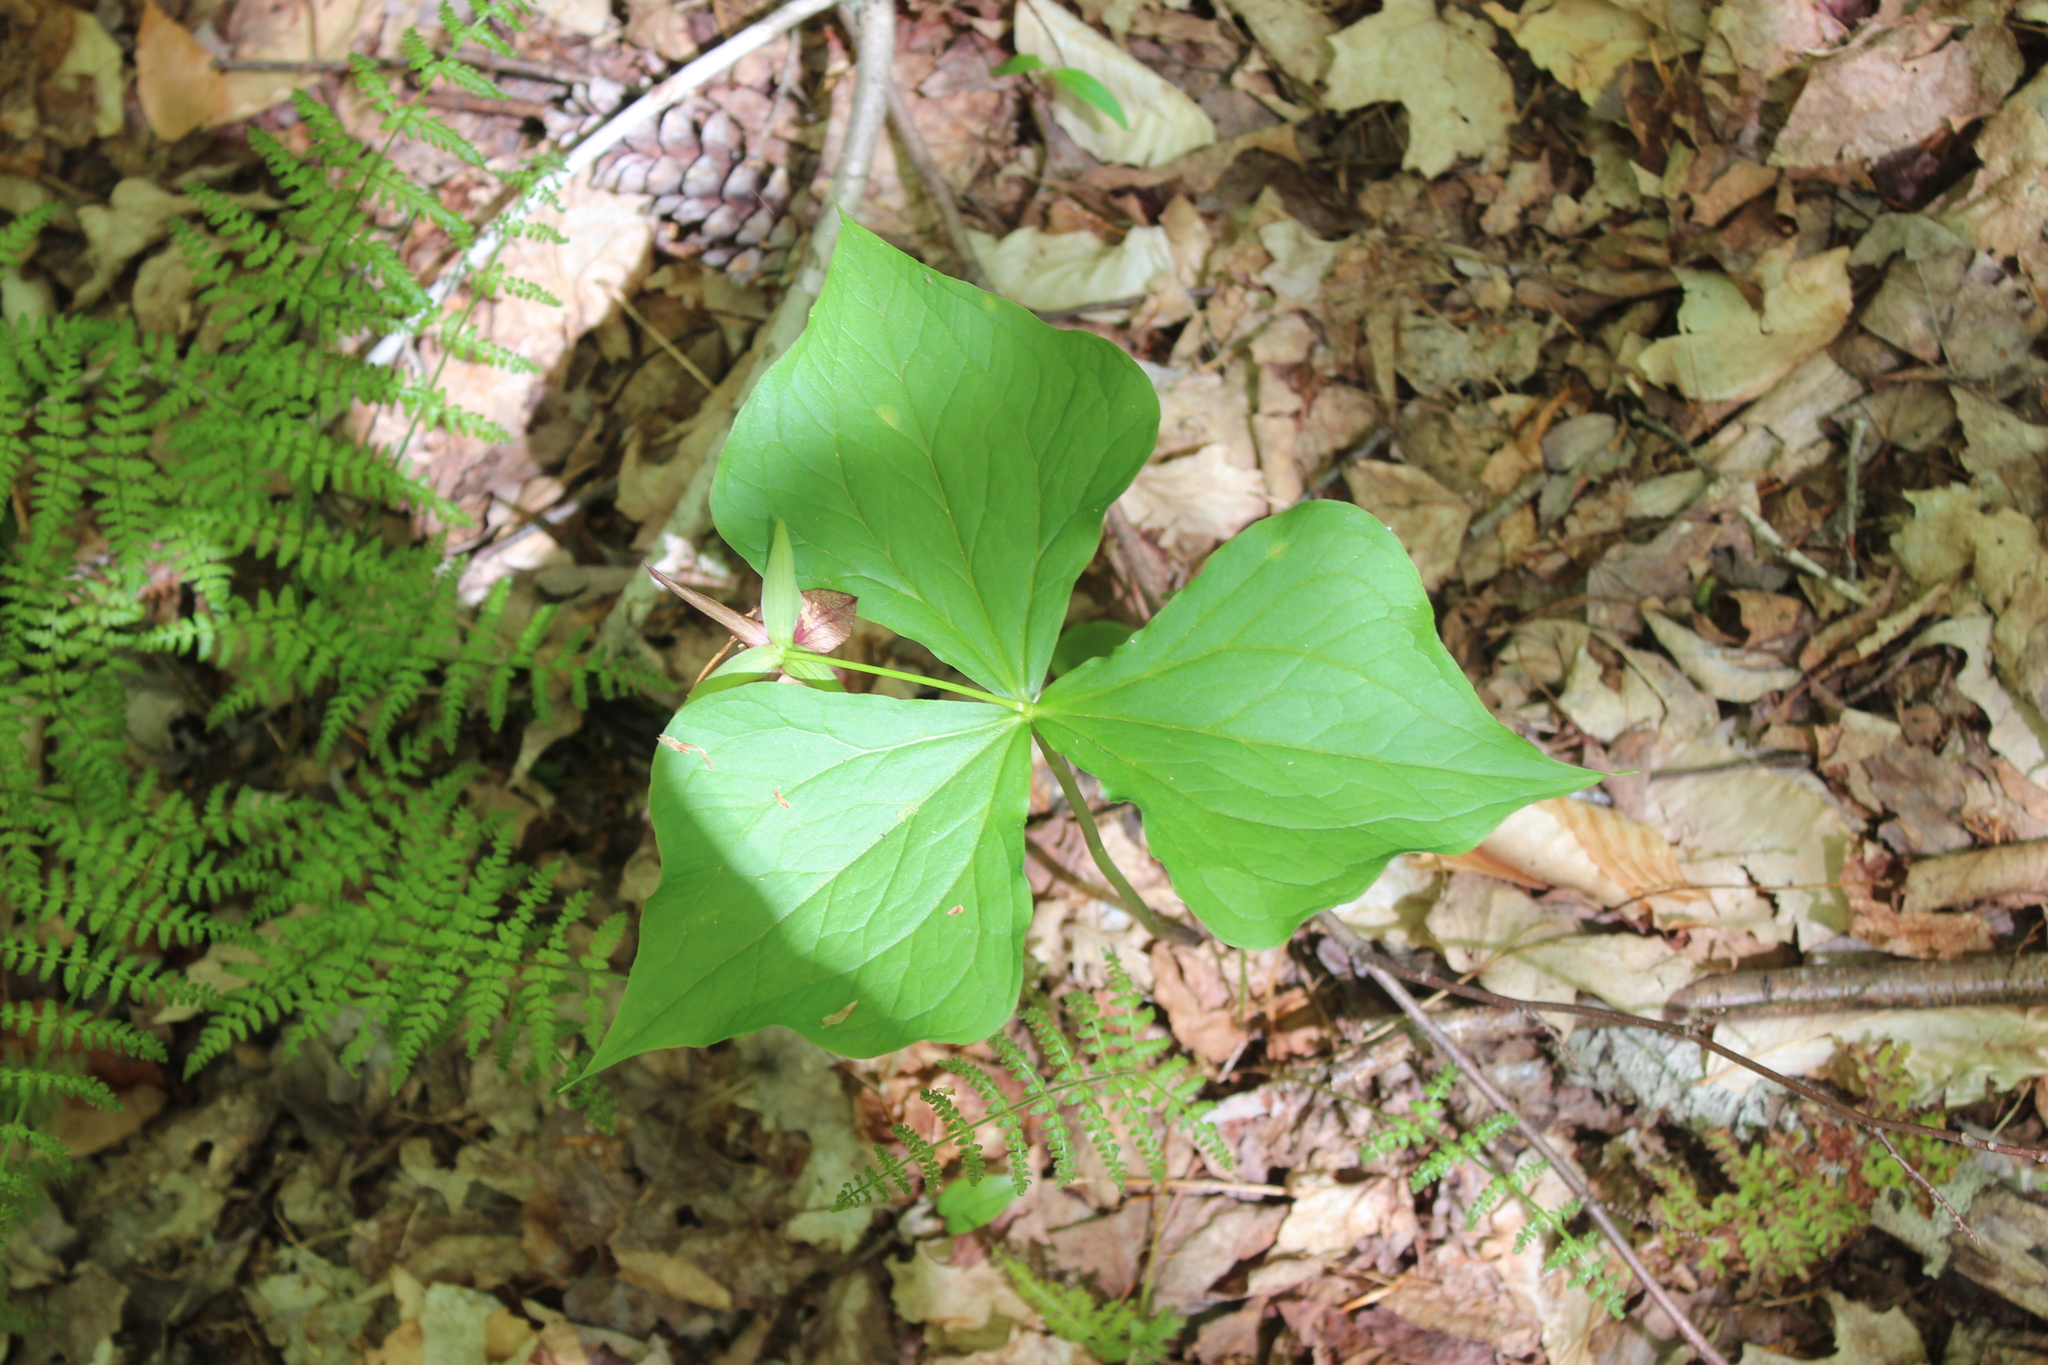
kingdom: Plantae
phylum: Tracheophyta
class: Liliopsida
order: Liliales
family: Melanthiaceae
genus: Trillium
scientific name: Trillium erectum
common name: Purple trillium
